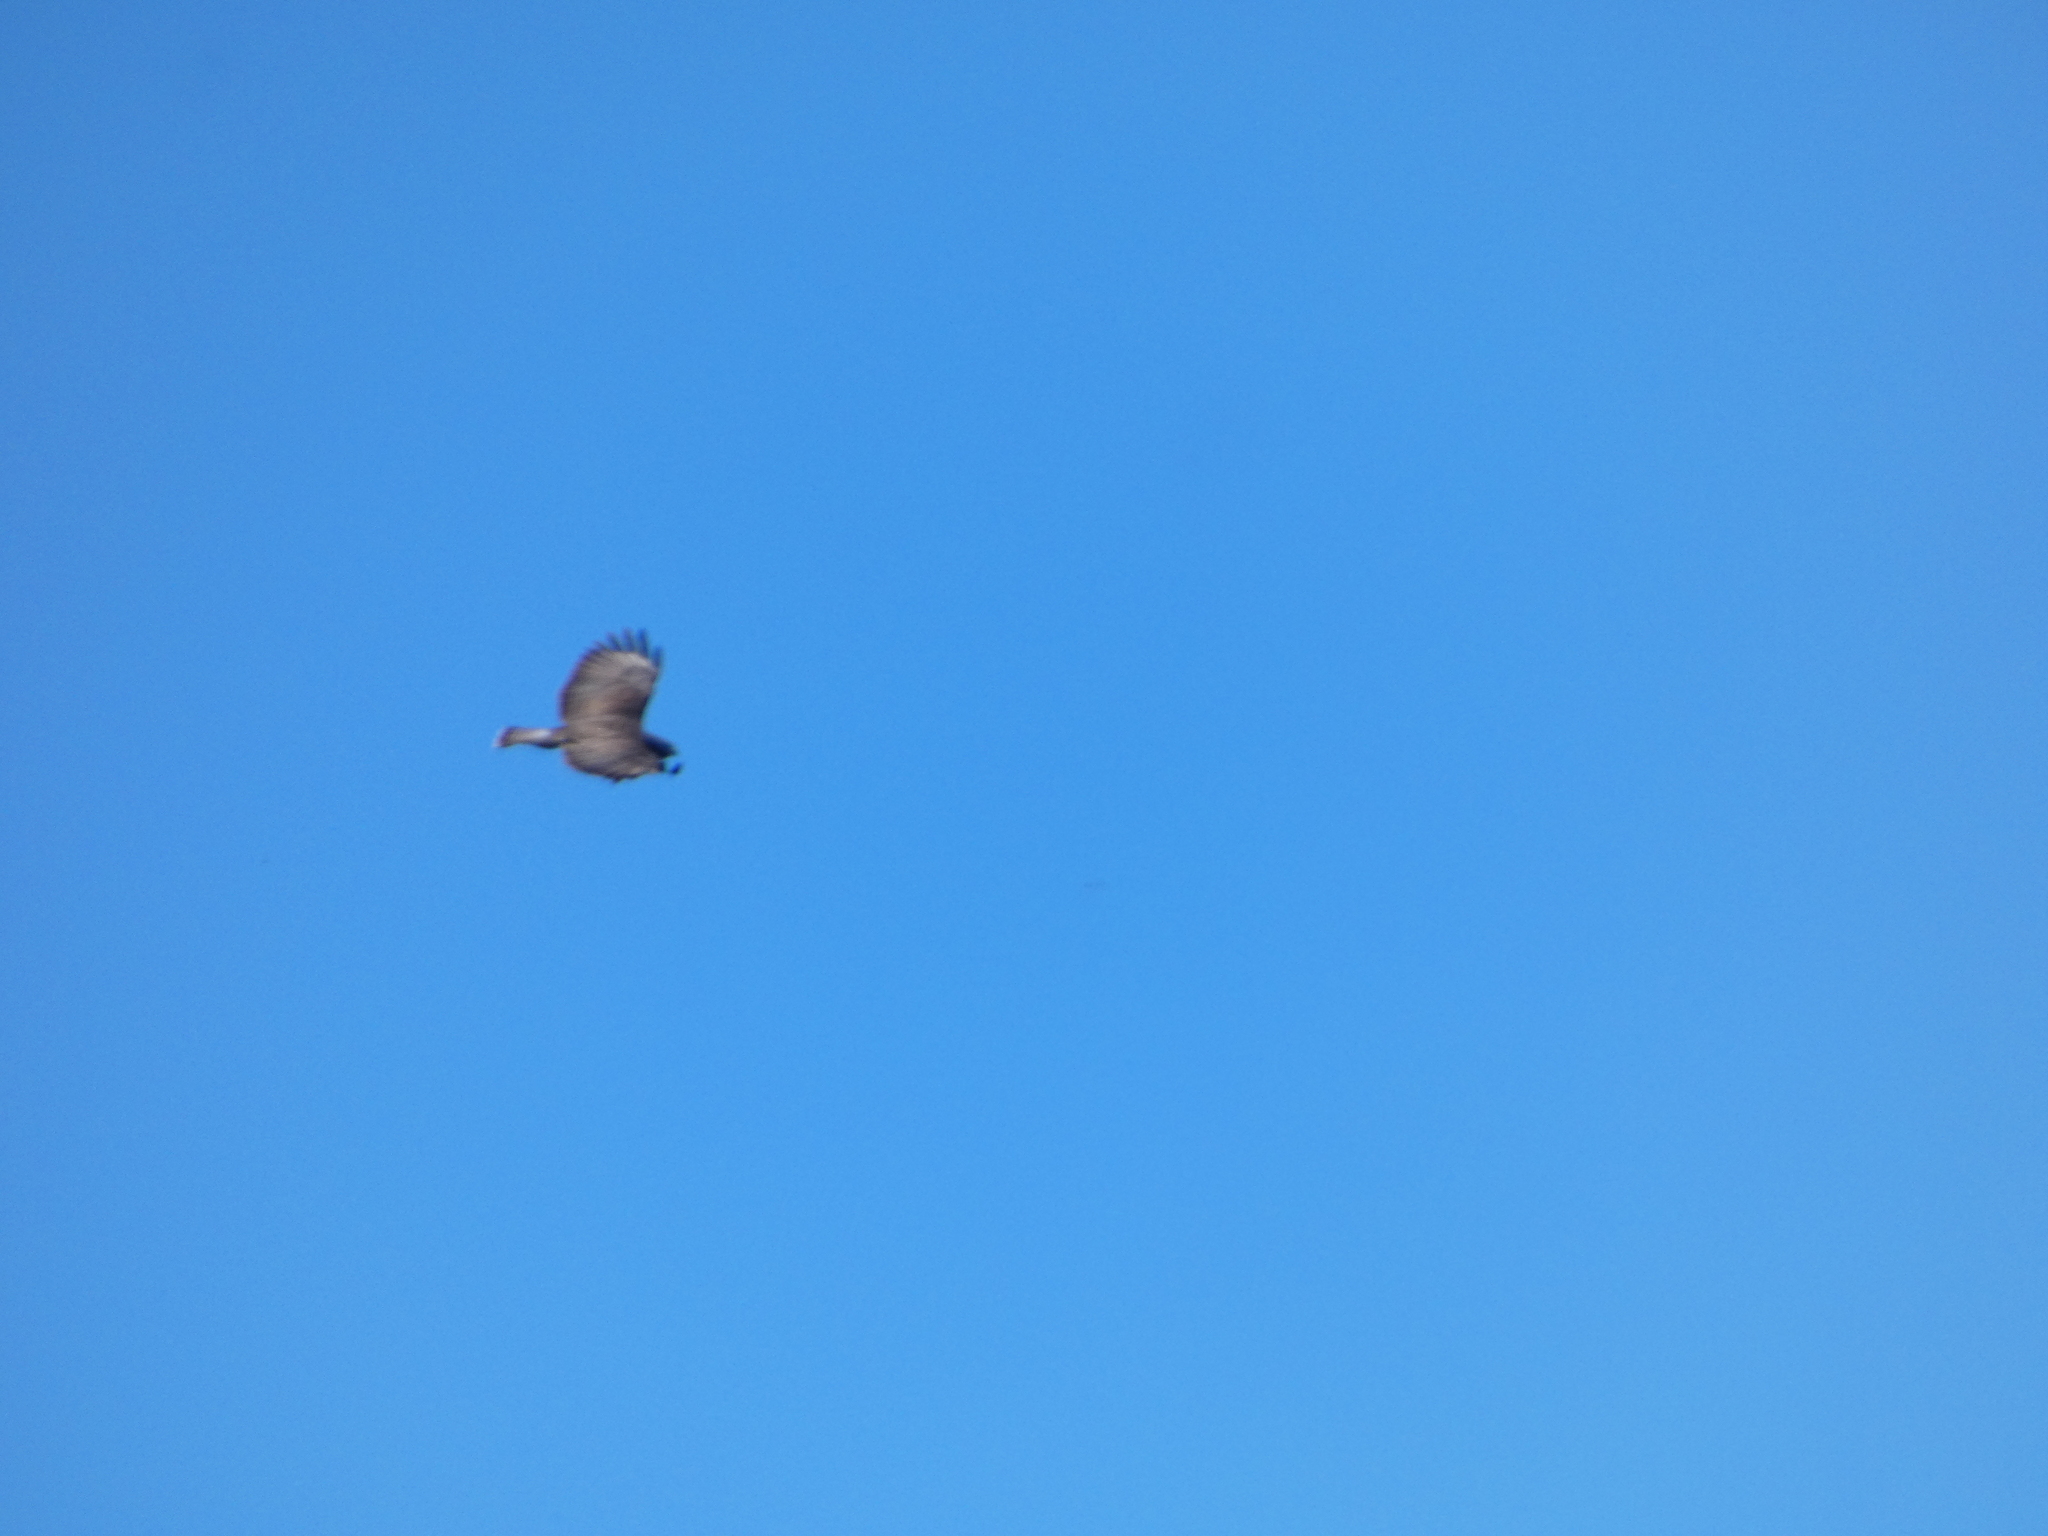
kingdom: Animalia
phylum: Chordata
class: Aves
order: Accipitriformes
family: Accipitridae
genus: Buteo
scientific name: Buteo buteo
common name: Common buzzard
